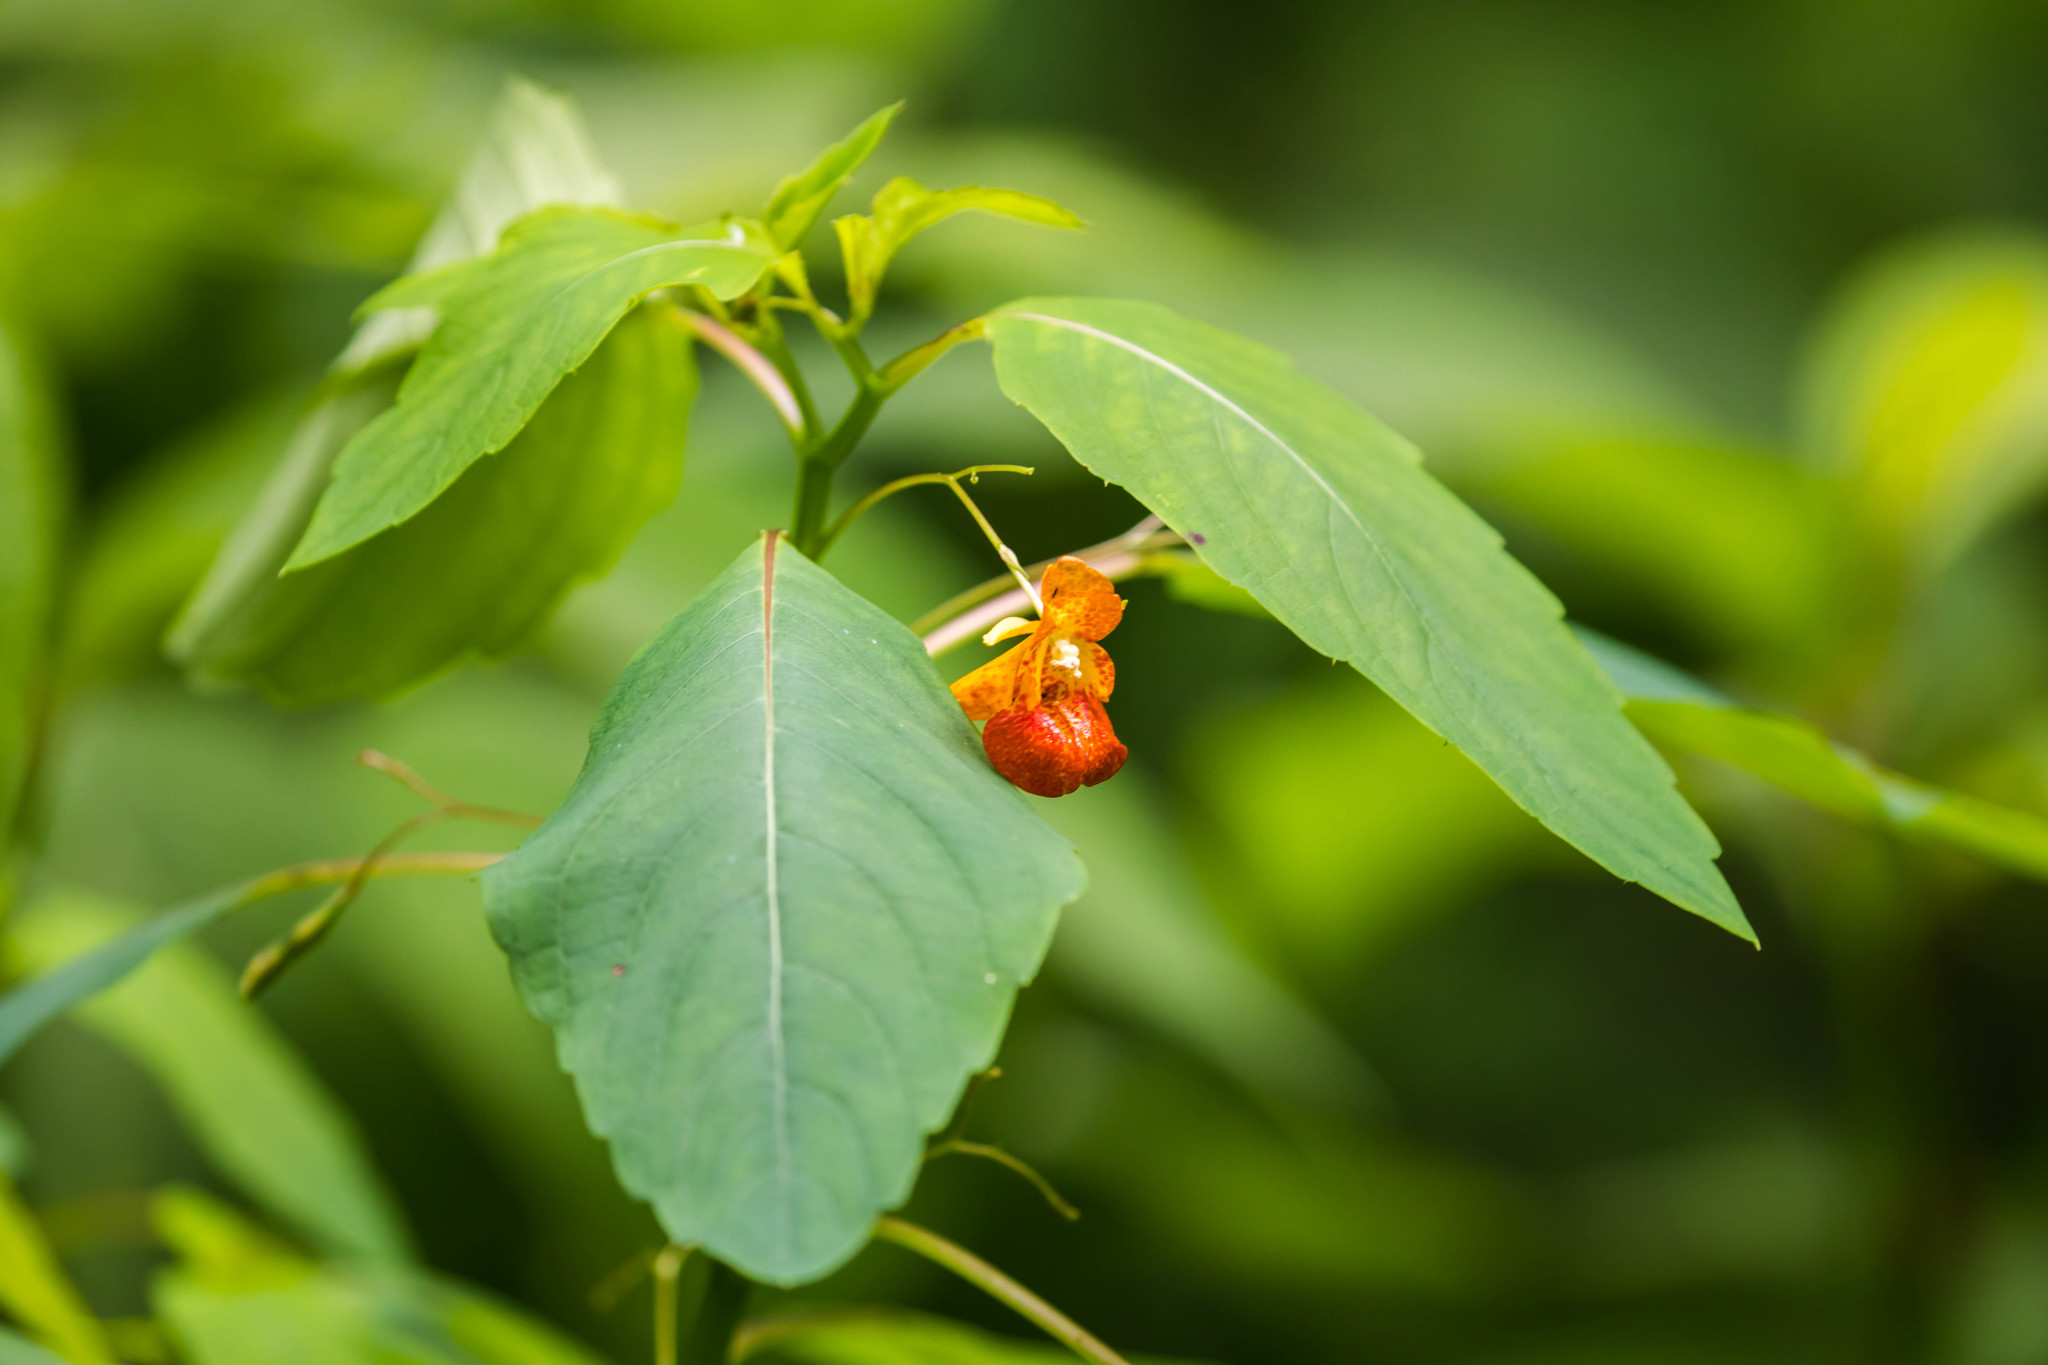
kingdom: Plantae
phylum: Tracheophyta
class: Magnoliopsida
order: Ericales
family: Balsaminaceae
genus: Impatiens
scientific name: Impatiens capensis
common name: Orange balsam
